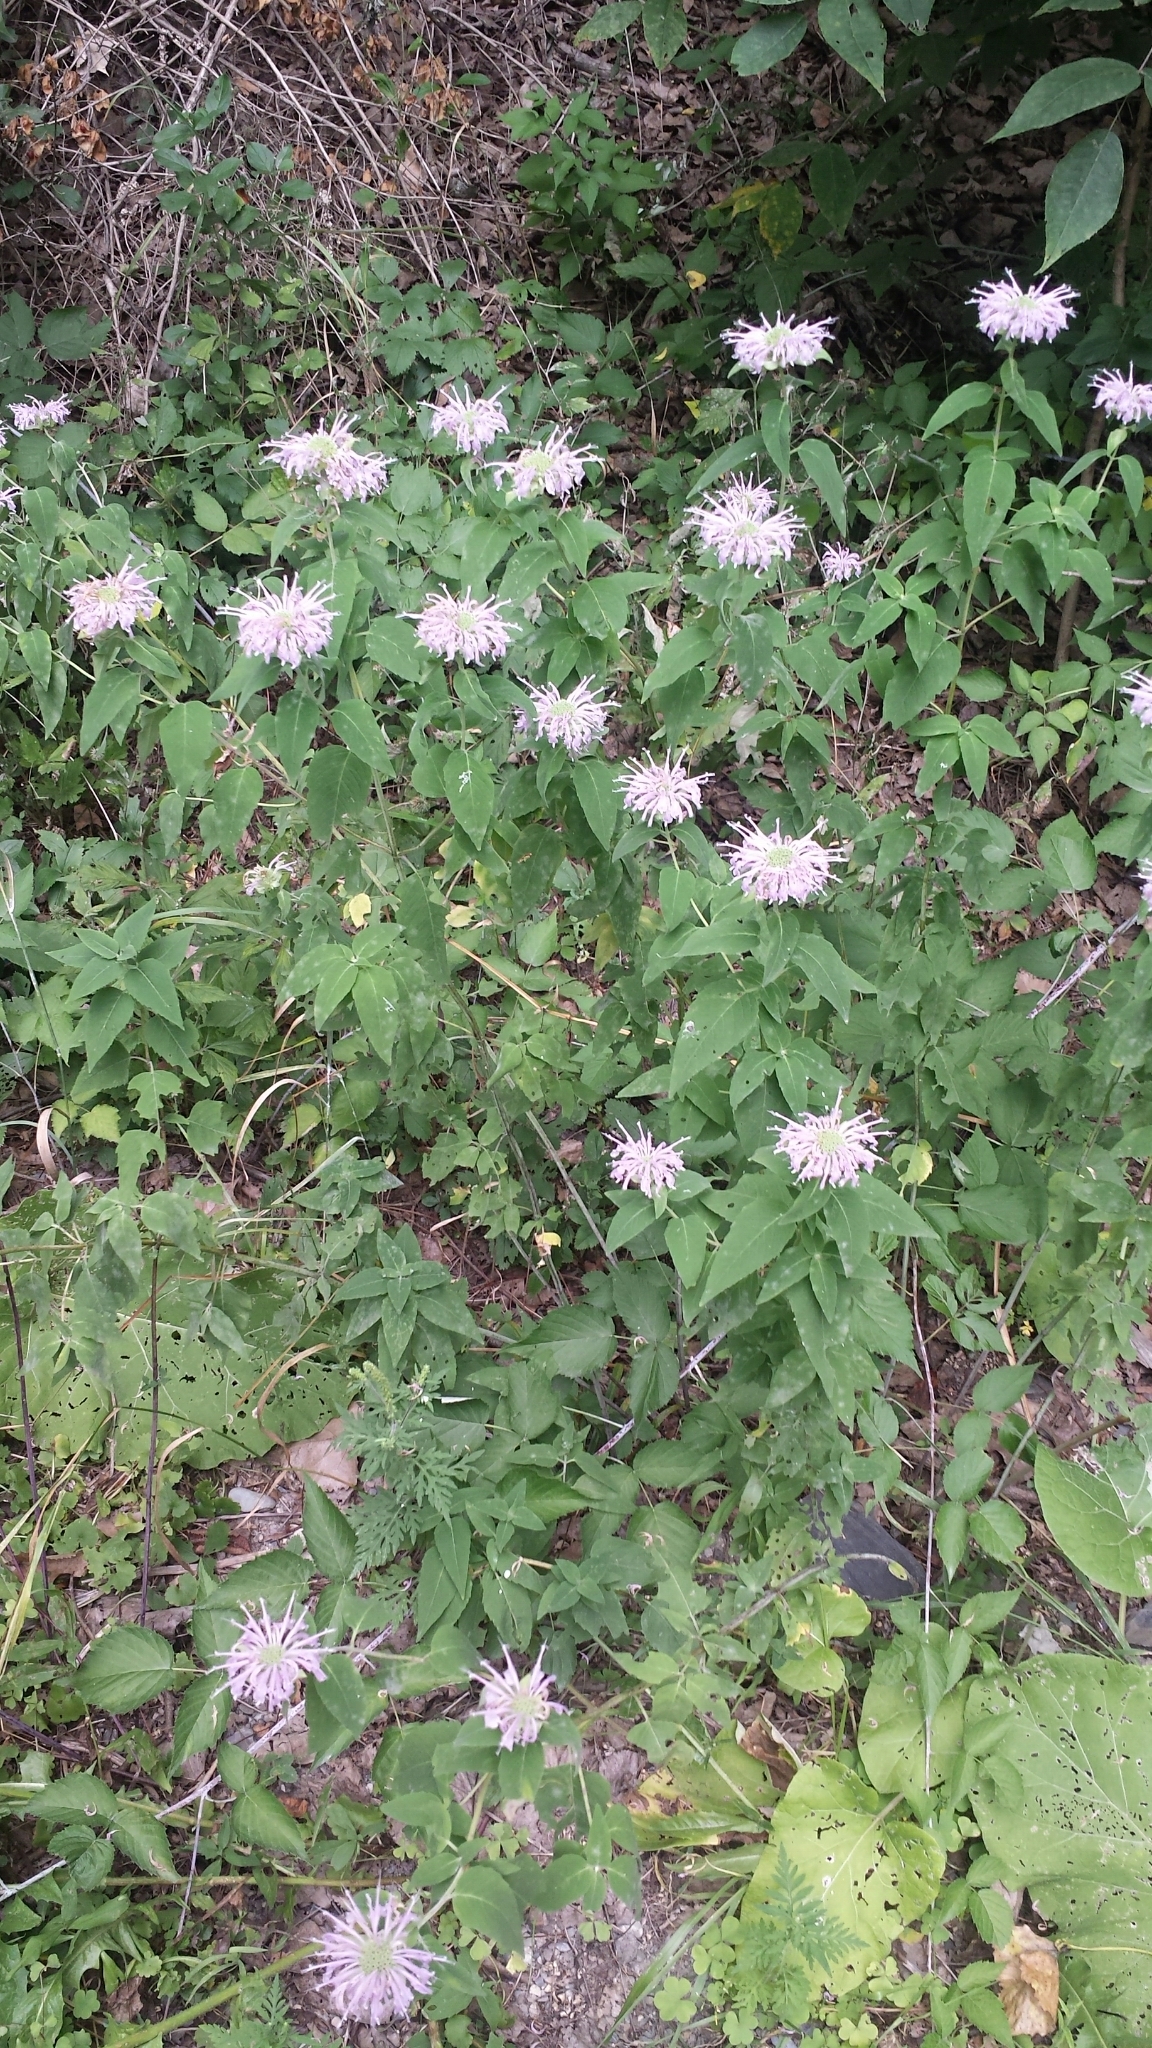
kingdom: Plantae
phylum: Tracheophyta
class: Magnoliopsida
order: Lamiales
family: Lamiaceae
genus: Monarda
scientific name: Monarda fistulosa
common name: Purple beebalm
